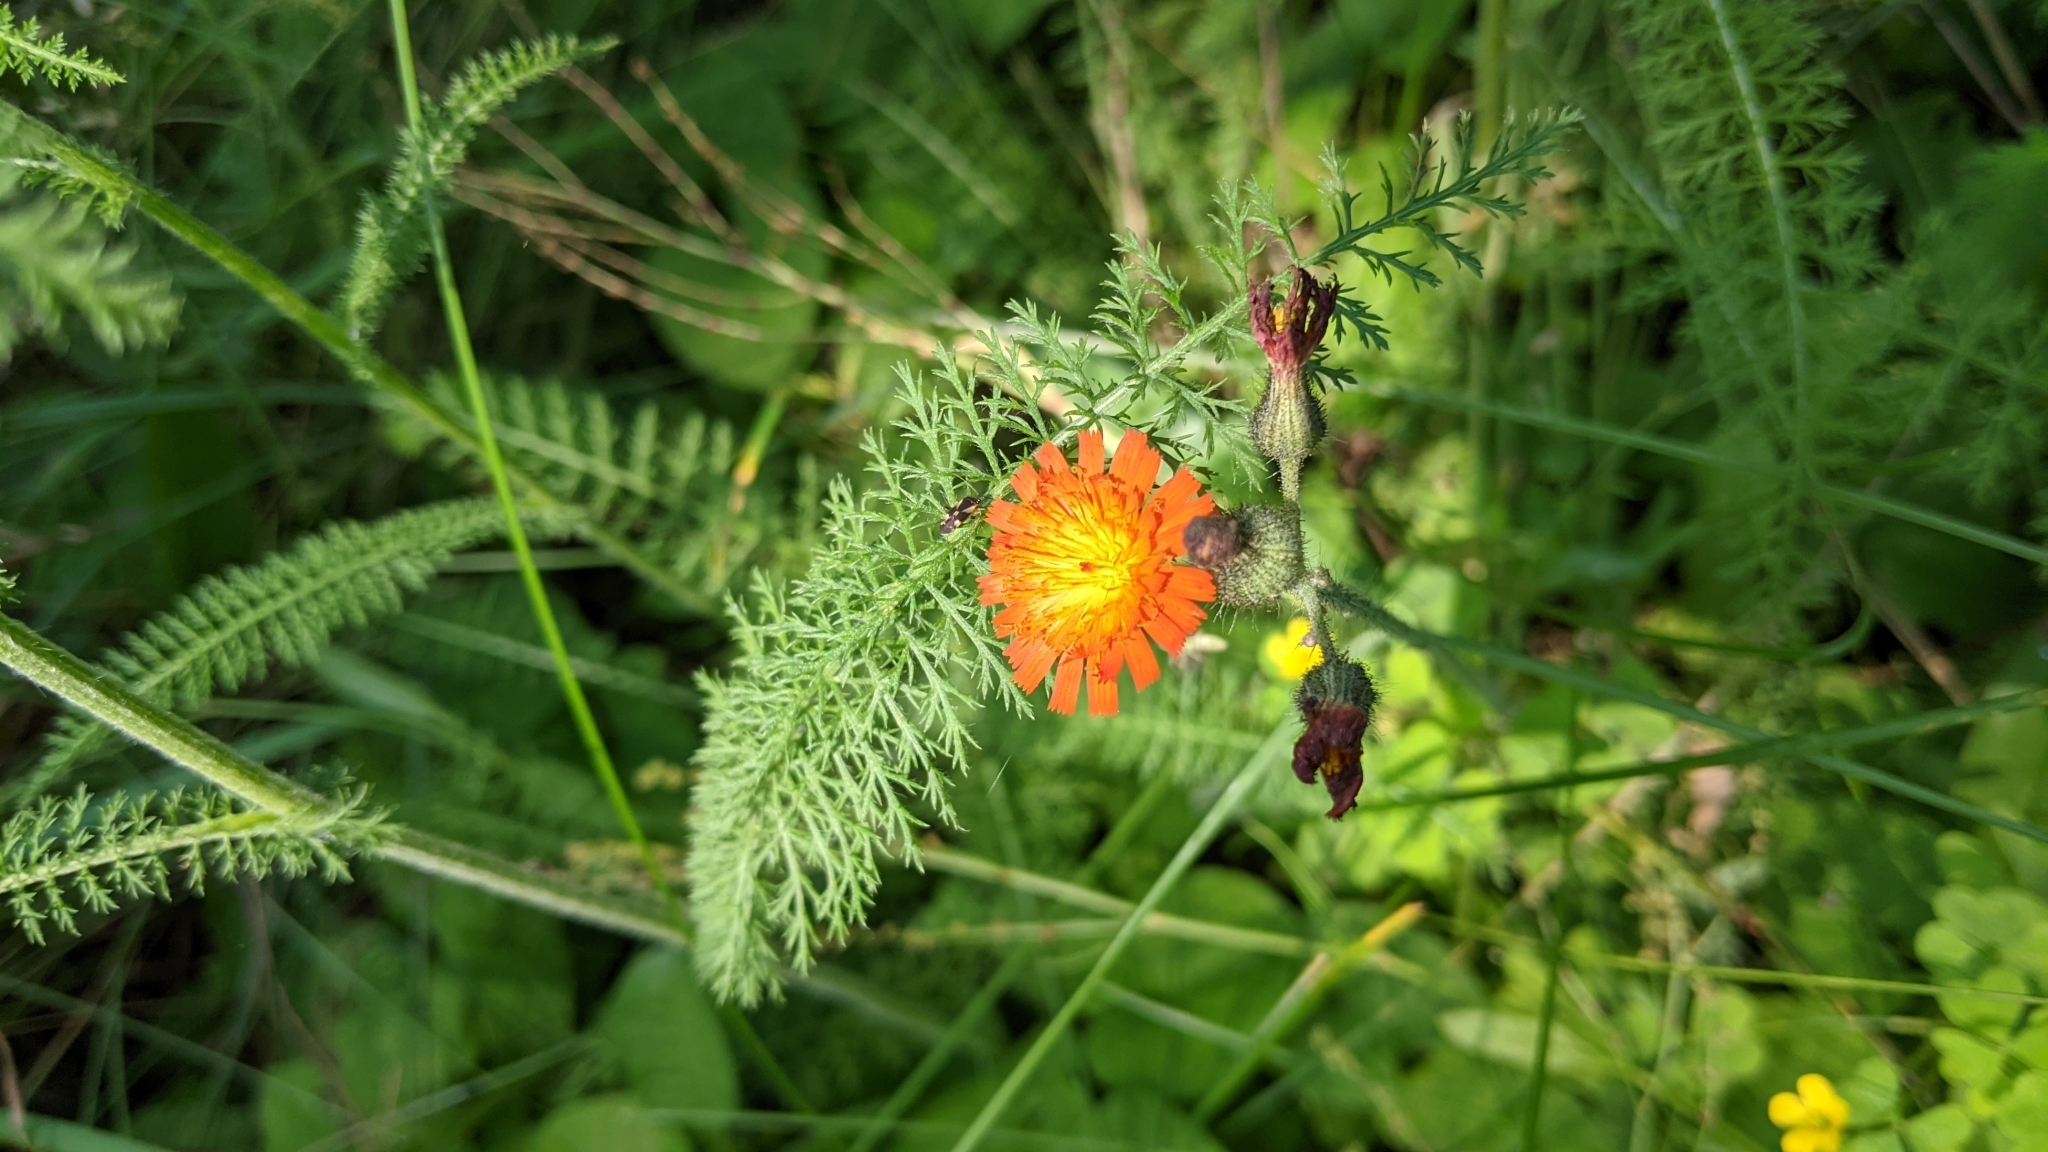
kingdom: Plantae
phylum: Tracheophyta
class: Magnoliopsida
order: Asterales
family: Asteraceae
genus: Pilosella
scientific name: Pilosella aurantiaca
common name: Fox-and-cubs
